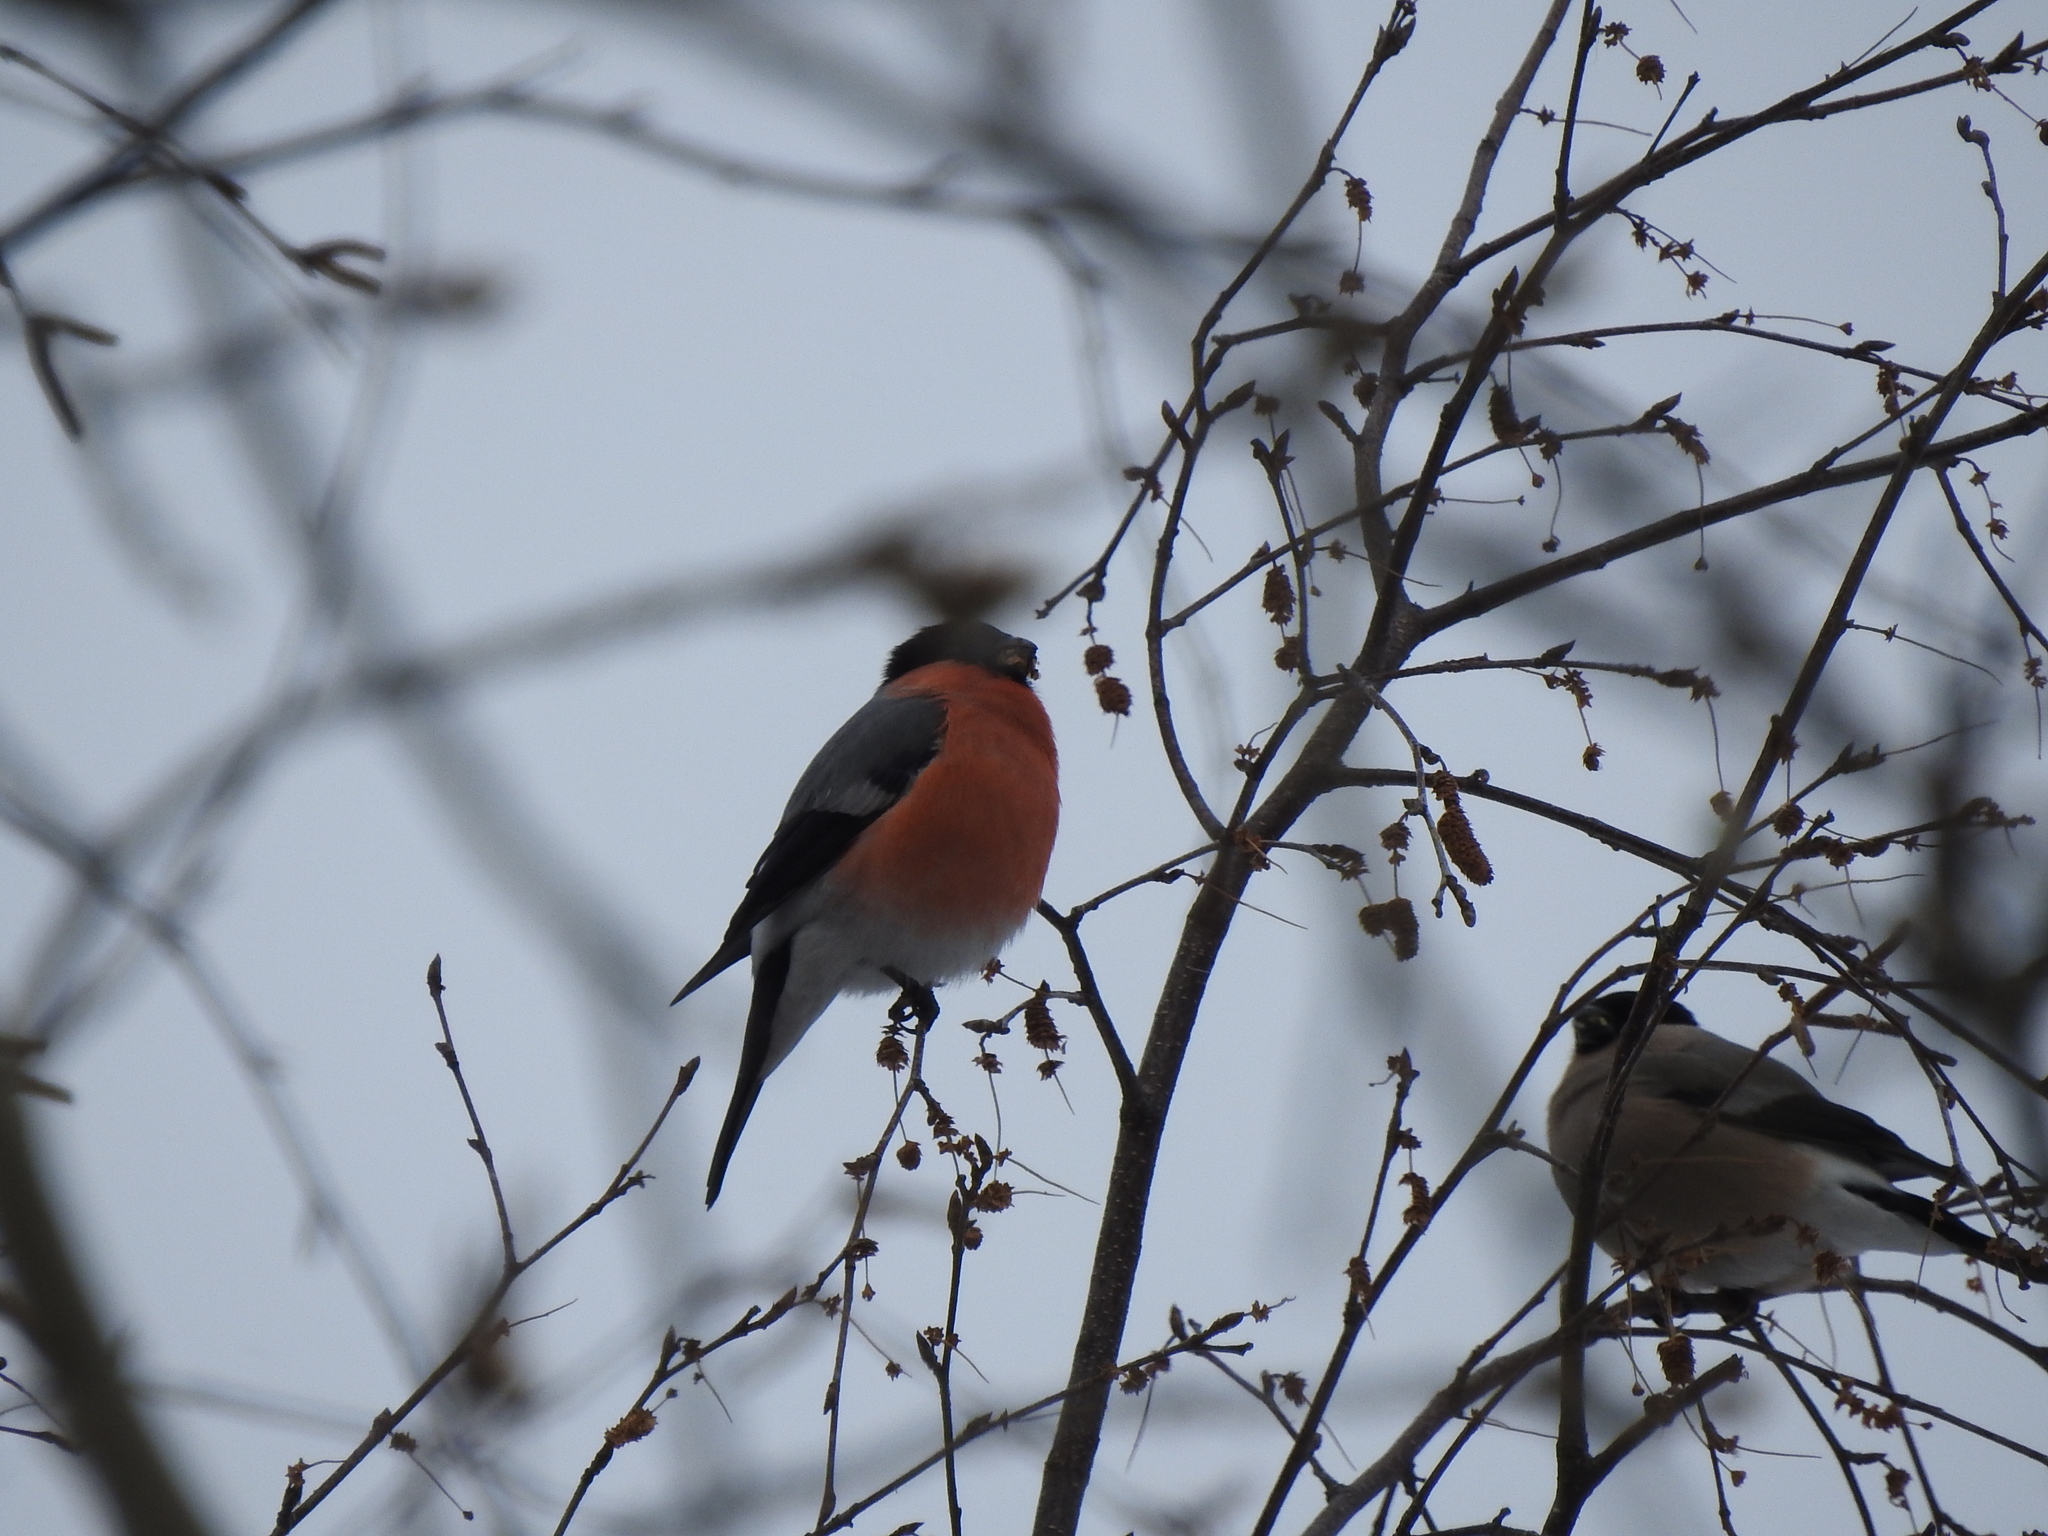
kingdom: Animalia
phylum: Chordata
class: Aves
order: Passeriformes
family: Fringillidae
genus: Pyrrhula
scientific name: Pyrrhula pyrrhula
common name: Eurasian bullfinch
